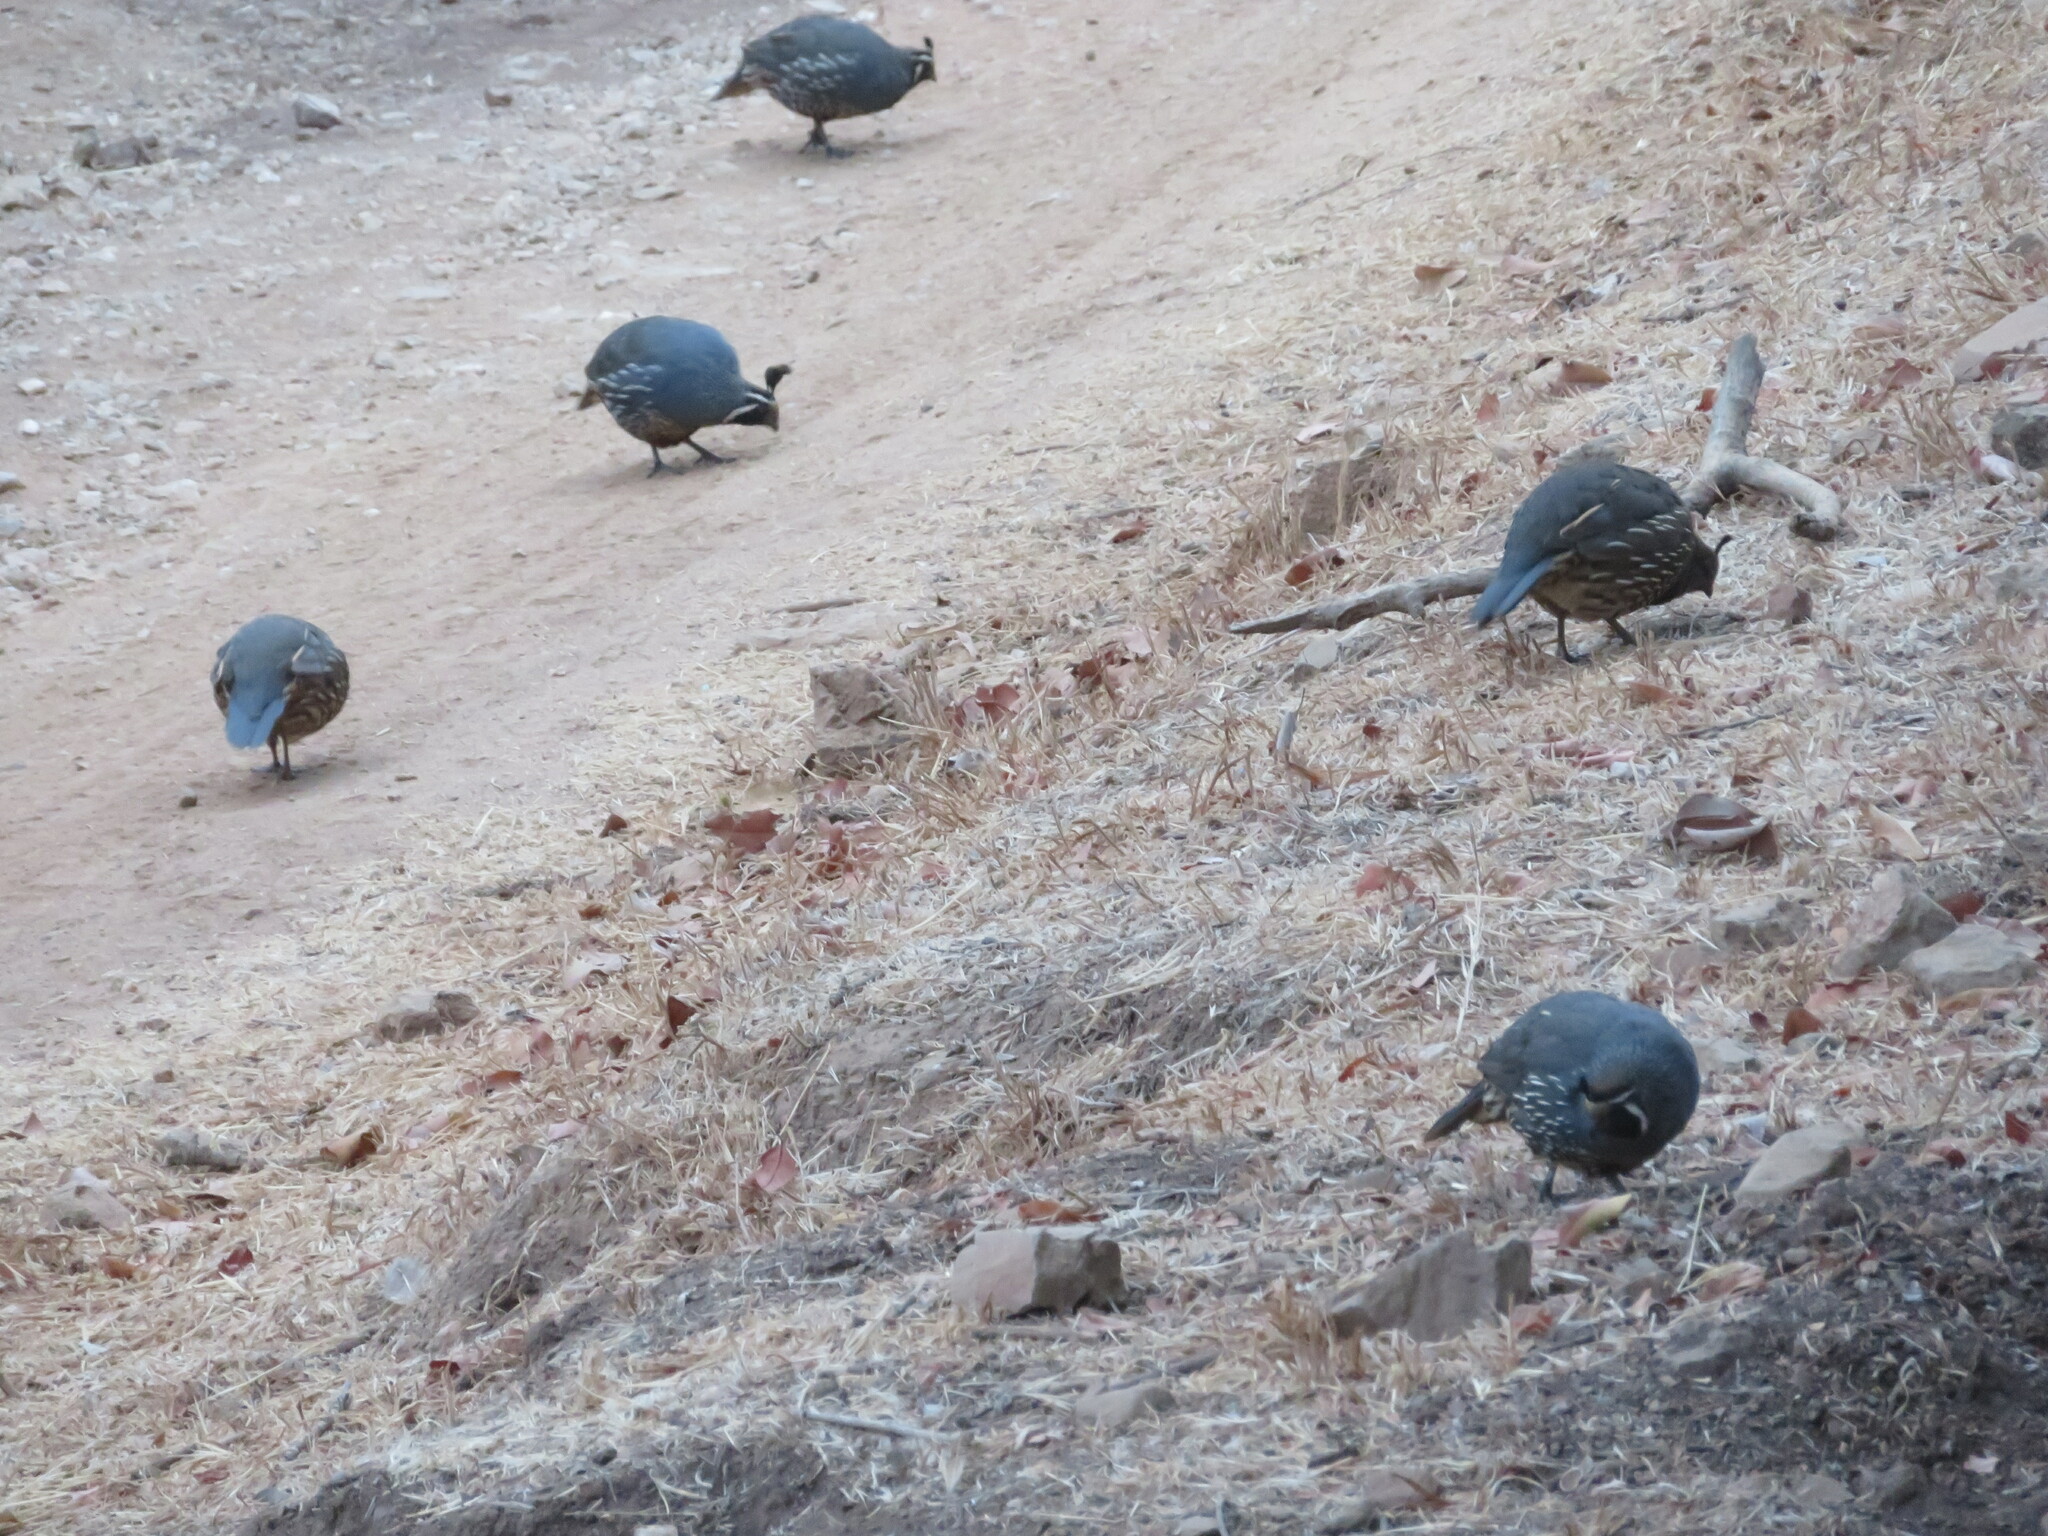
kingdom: Animalia
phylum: Chordata
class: Aves
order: Galliformes
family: Odontophoridae
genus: Callipepla
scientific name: Callipepla californica
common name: California quail
